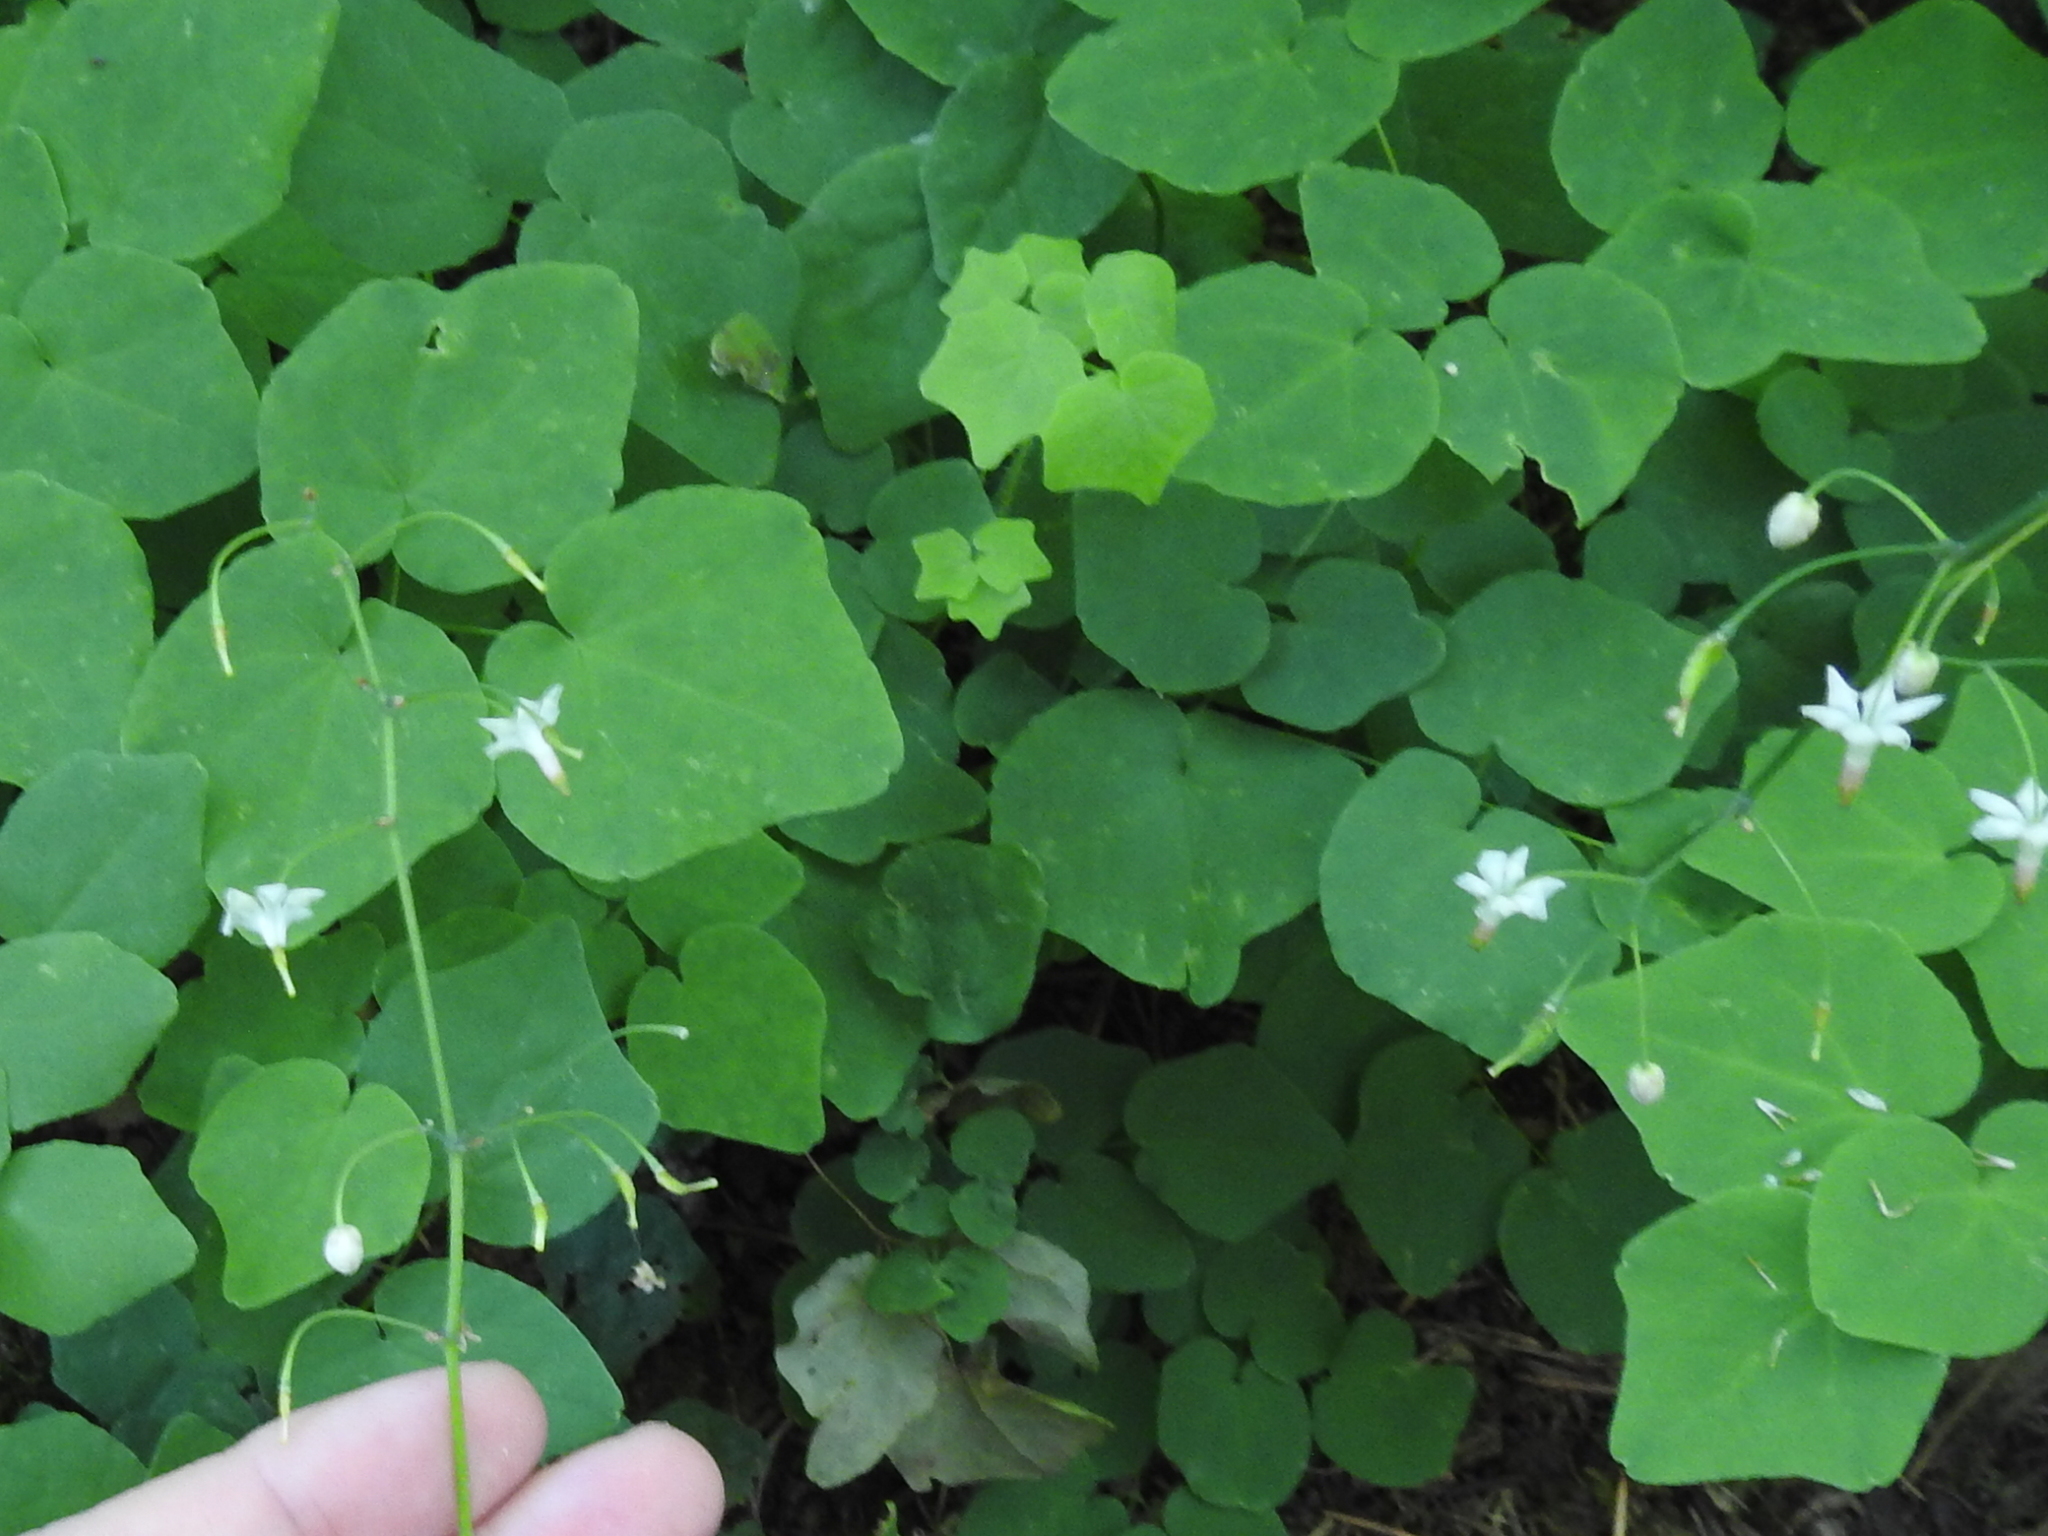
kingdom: Plantae
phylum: Tracheophyta
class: Magnoliopsida
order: Ranunculales
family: Berberidaceae
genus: Vancouveria
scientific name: Vancouveria hexandra
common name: Northern inside-out-flower
